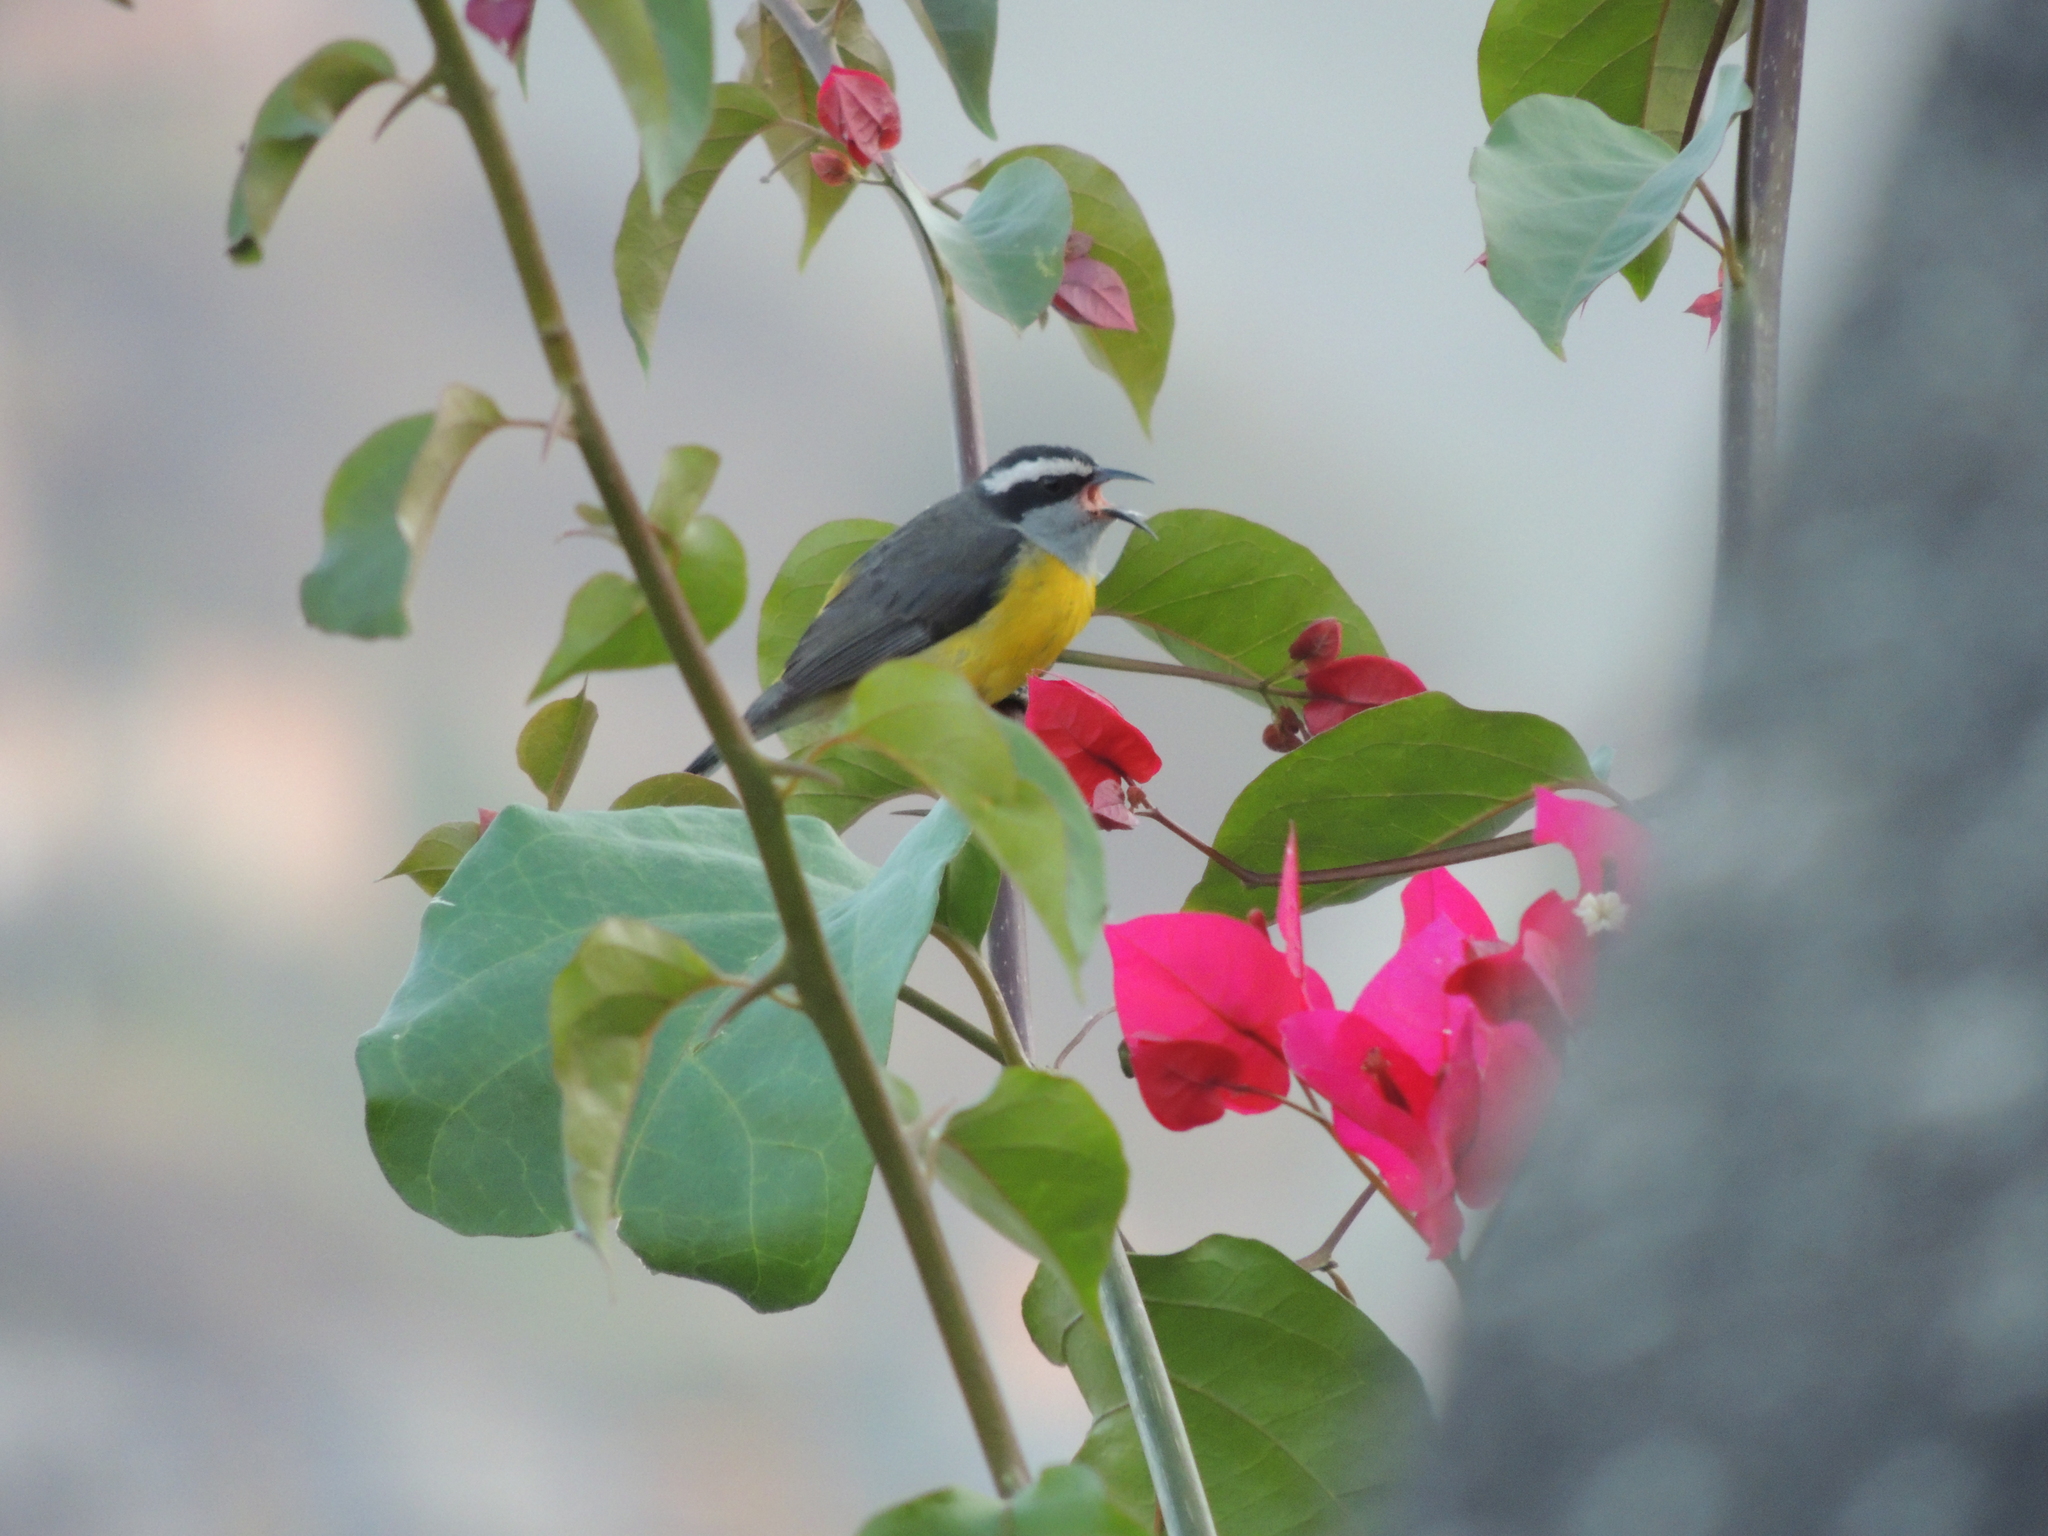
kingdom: Animalia
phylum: Chordata
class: Aves
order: Passeriformes
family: Thraupidae
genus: Coereba
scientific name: Coereba flaveola
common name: Bananaquit
